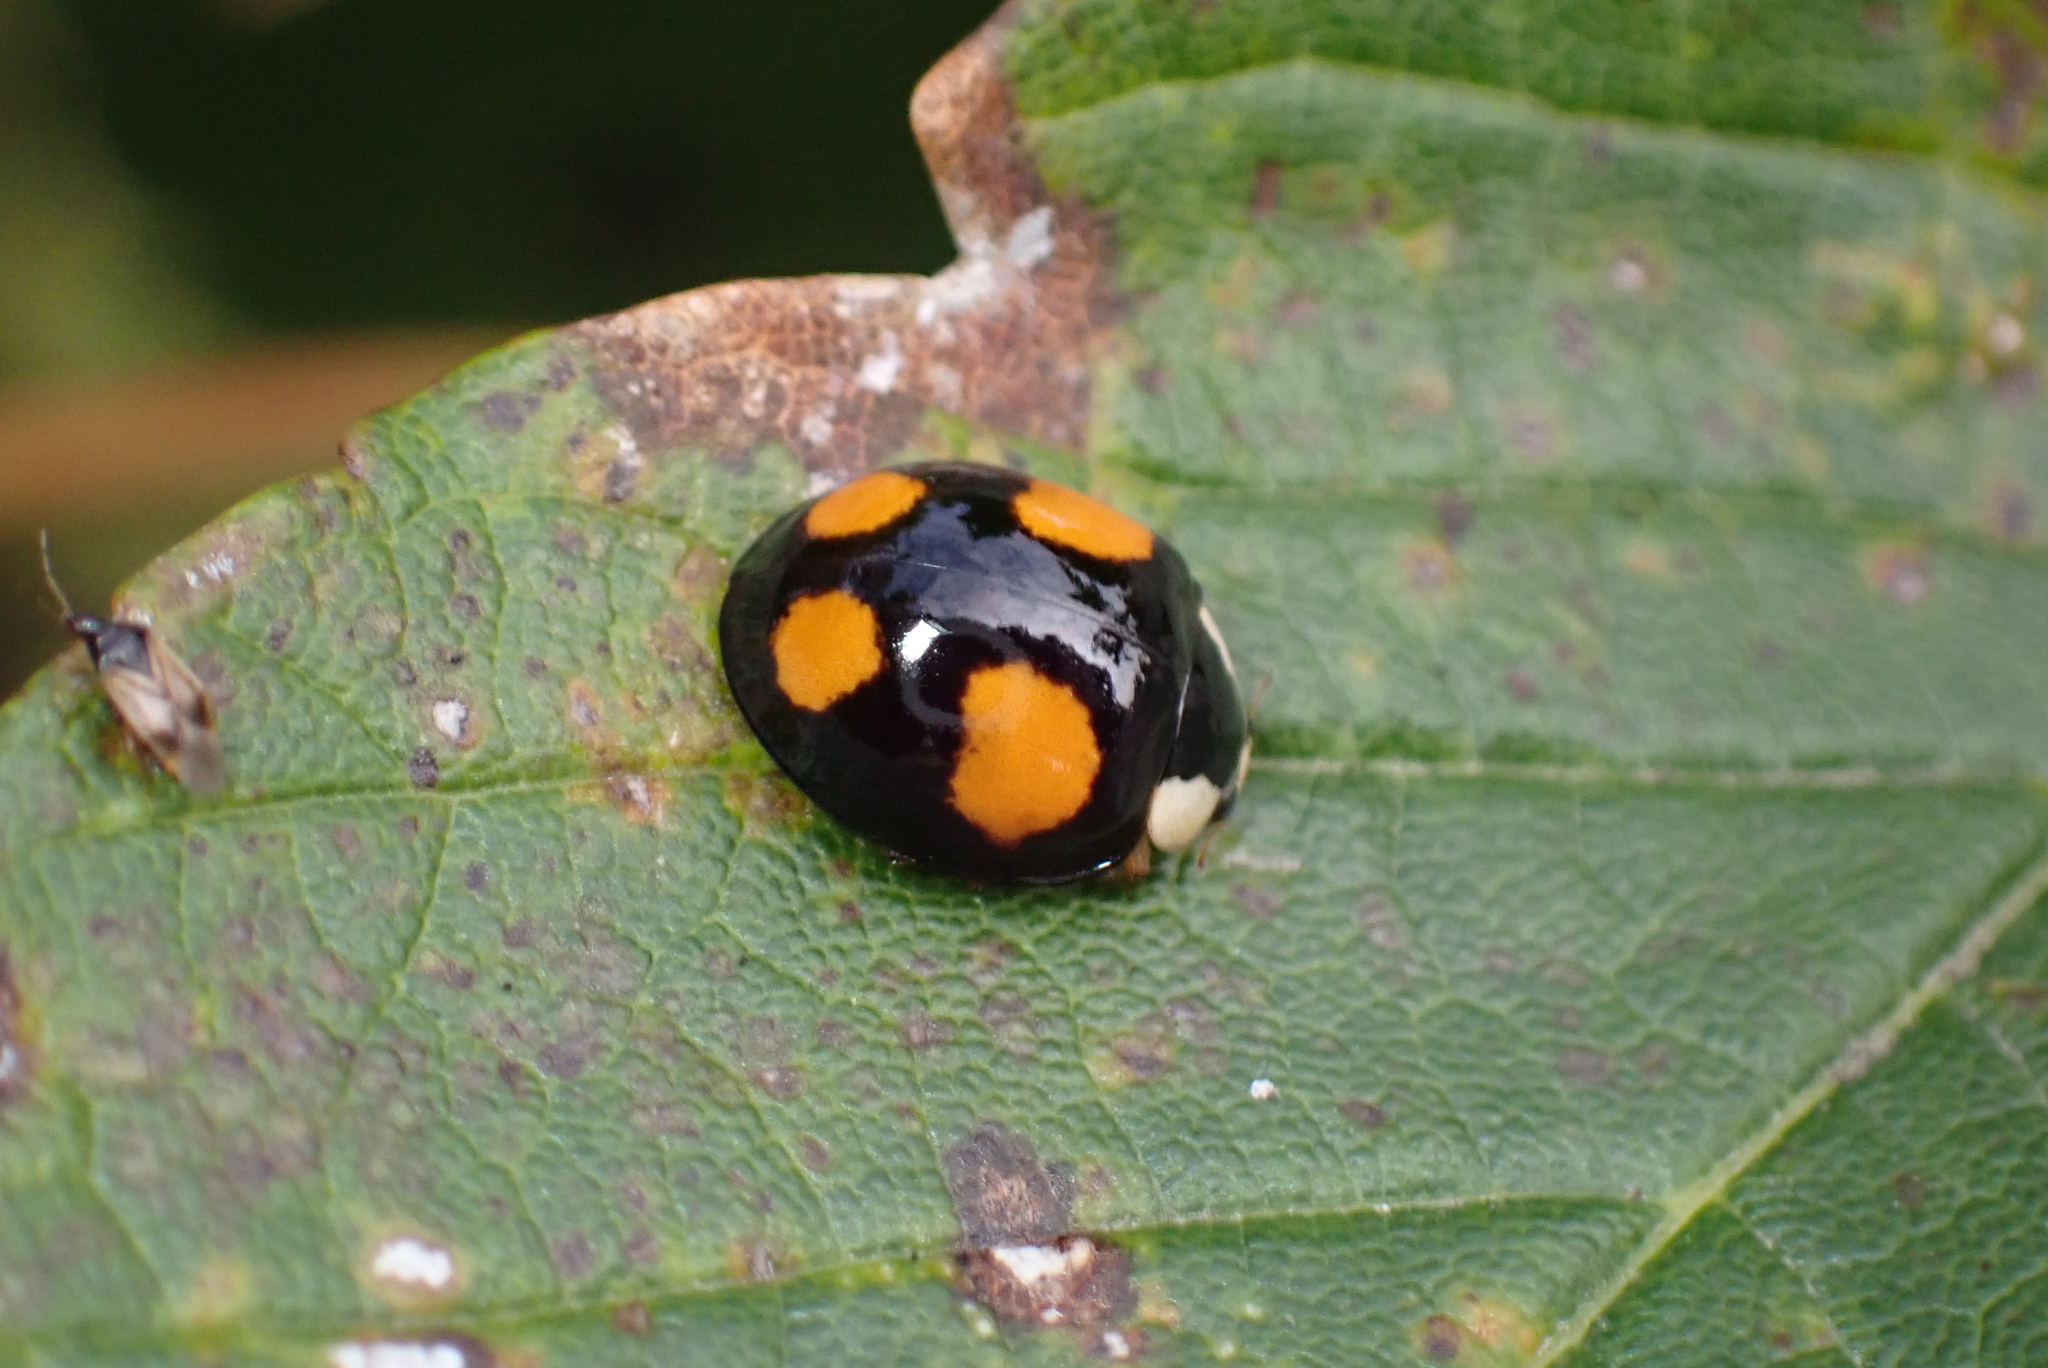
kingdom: Animalia
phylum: Arthropoda
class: Insecta
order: Coleoptera
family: Coccinellidae
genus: Harmonia
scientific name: Harmonia axyridis
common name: Harlequin ladybird
